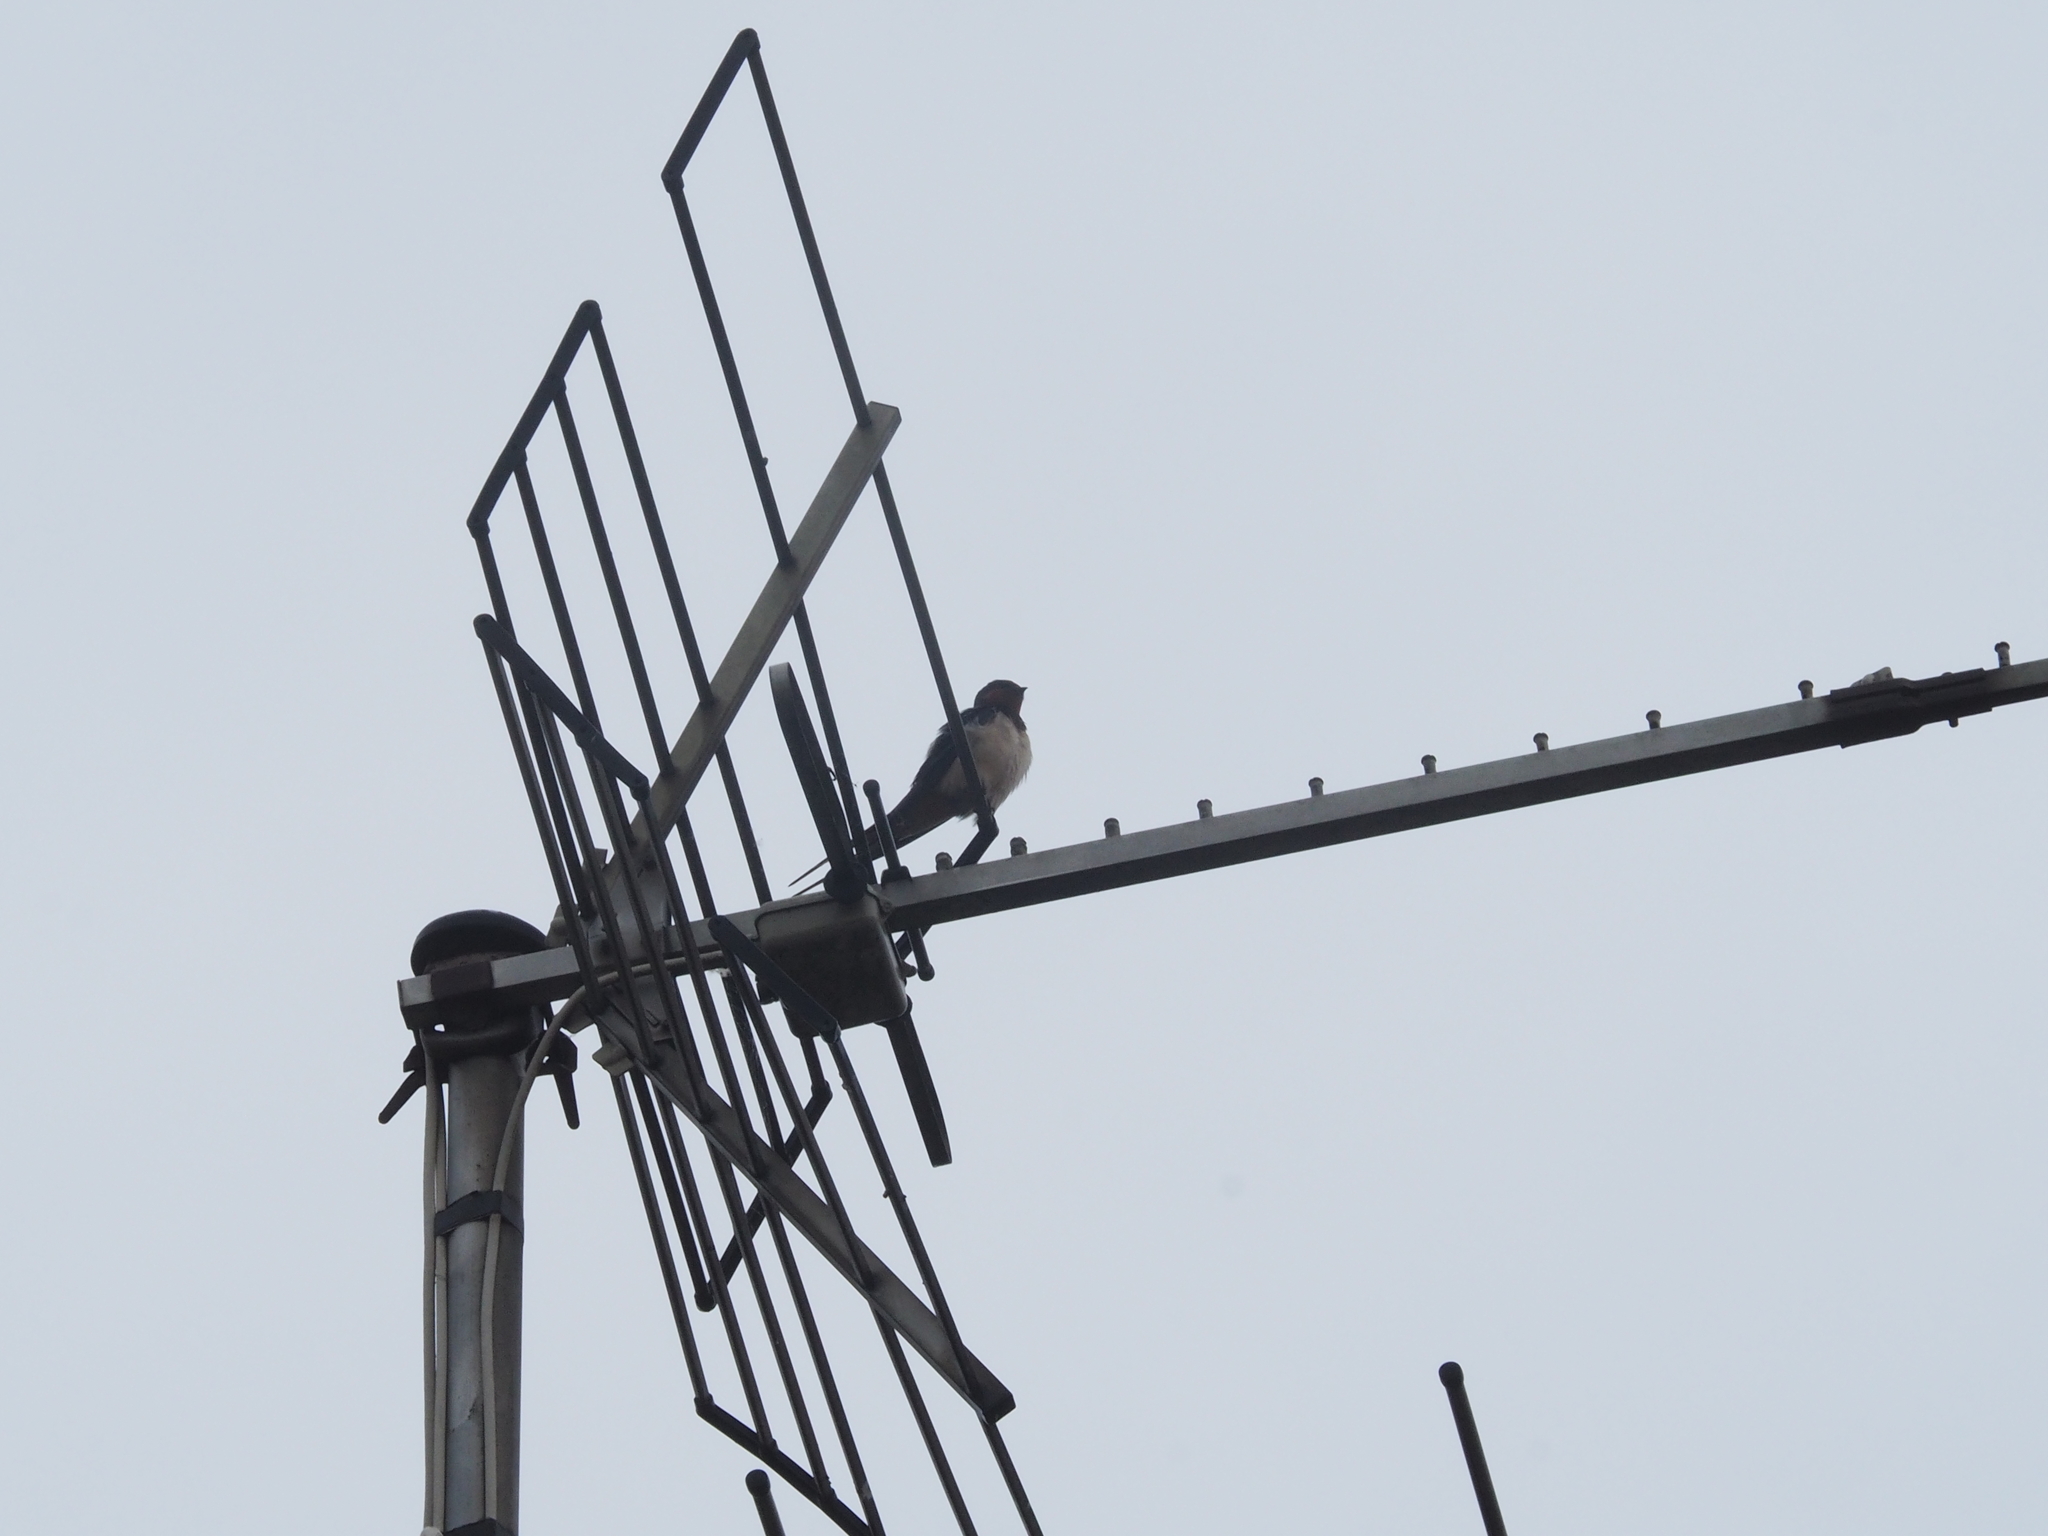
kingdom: Animalia
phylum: Chordata
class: Aves
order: Passeriformes
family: Hirundinidae
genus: Hirundo
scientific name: Hirundo rustica
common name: Barn swallow
